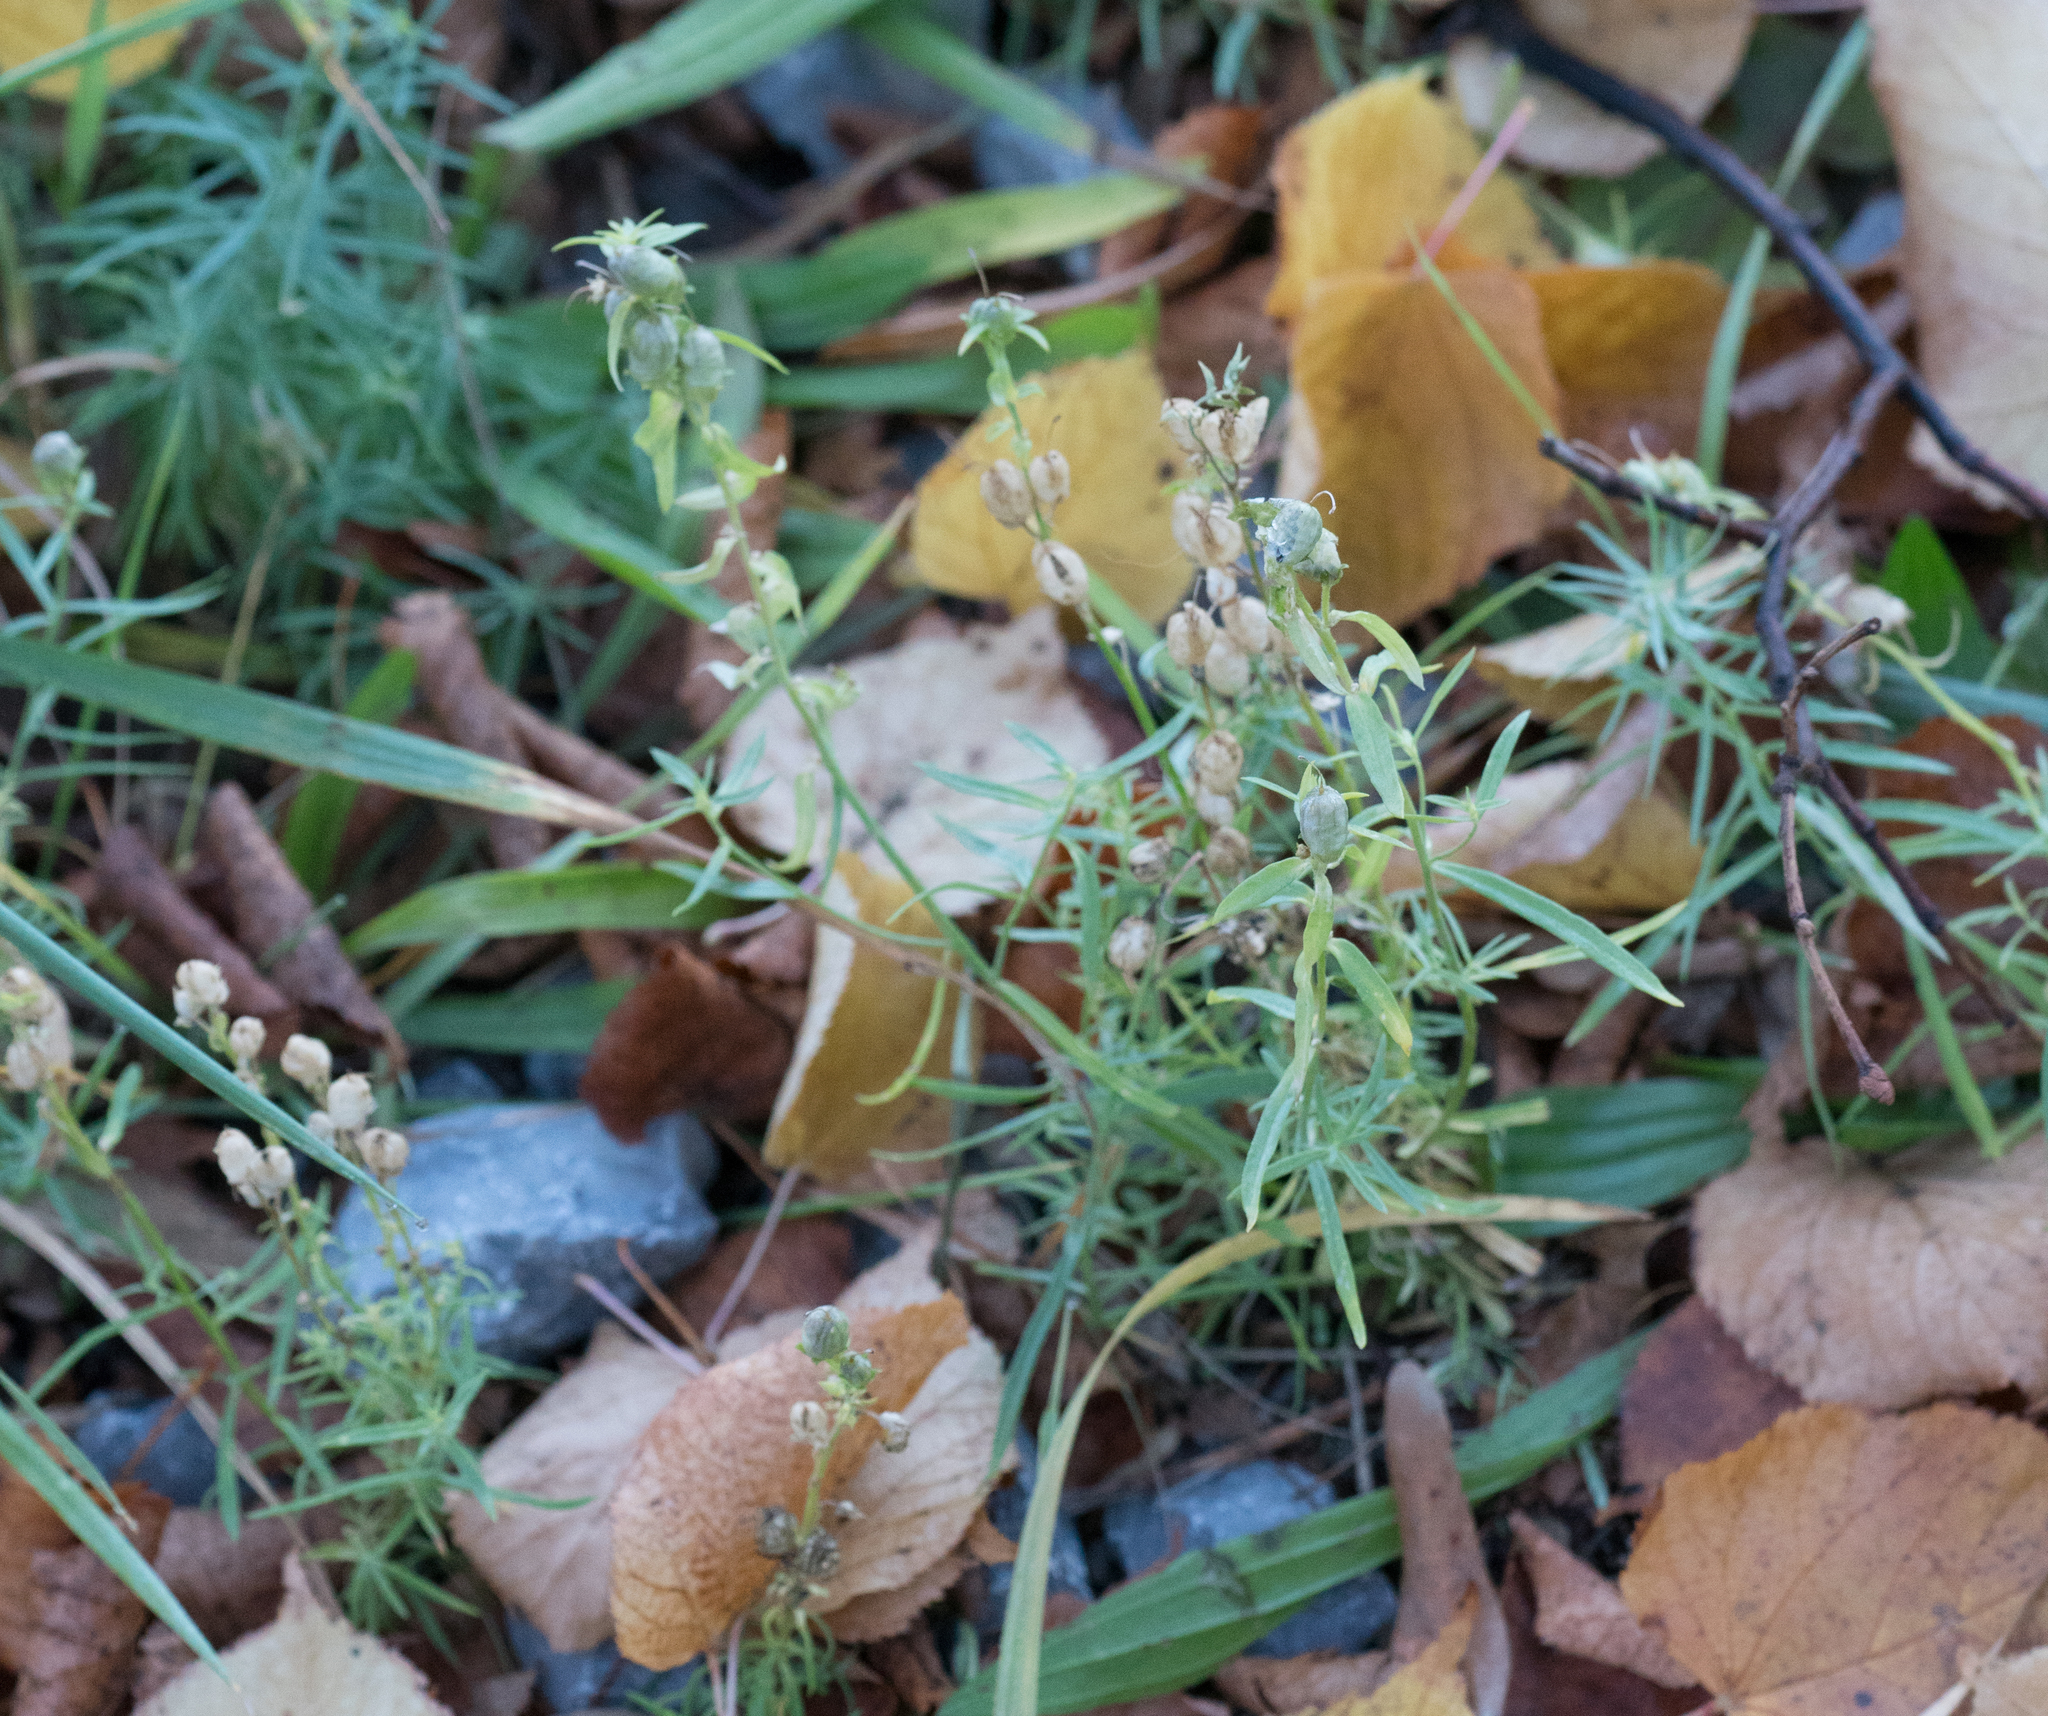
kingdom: Plantae
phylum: Tracheophyta
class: Magnoliopsida
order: Lamiales
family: Plantaginaceae
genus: Chaenorhinum
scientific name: Chaenorhinum minus
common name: Dwarf snapdragon
